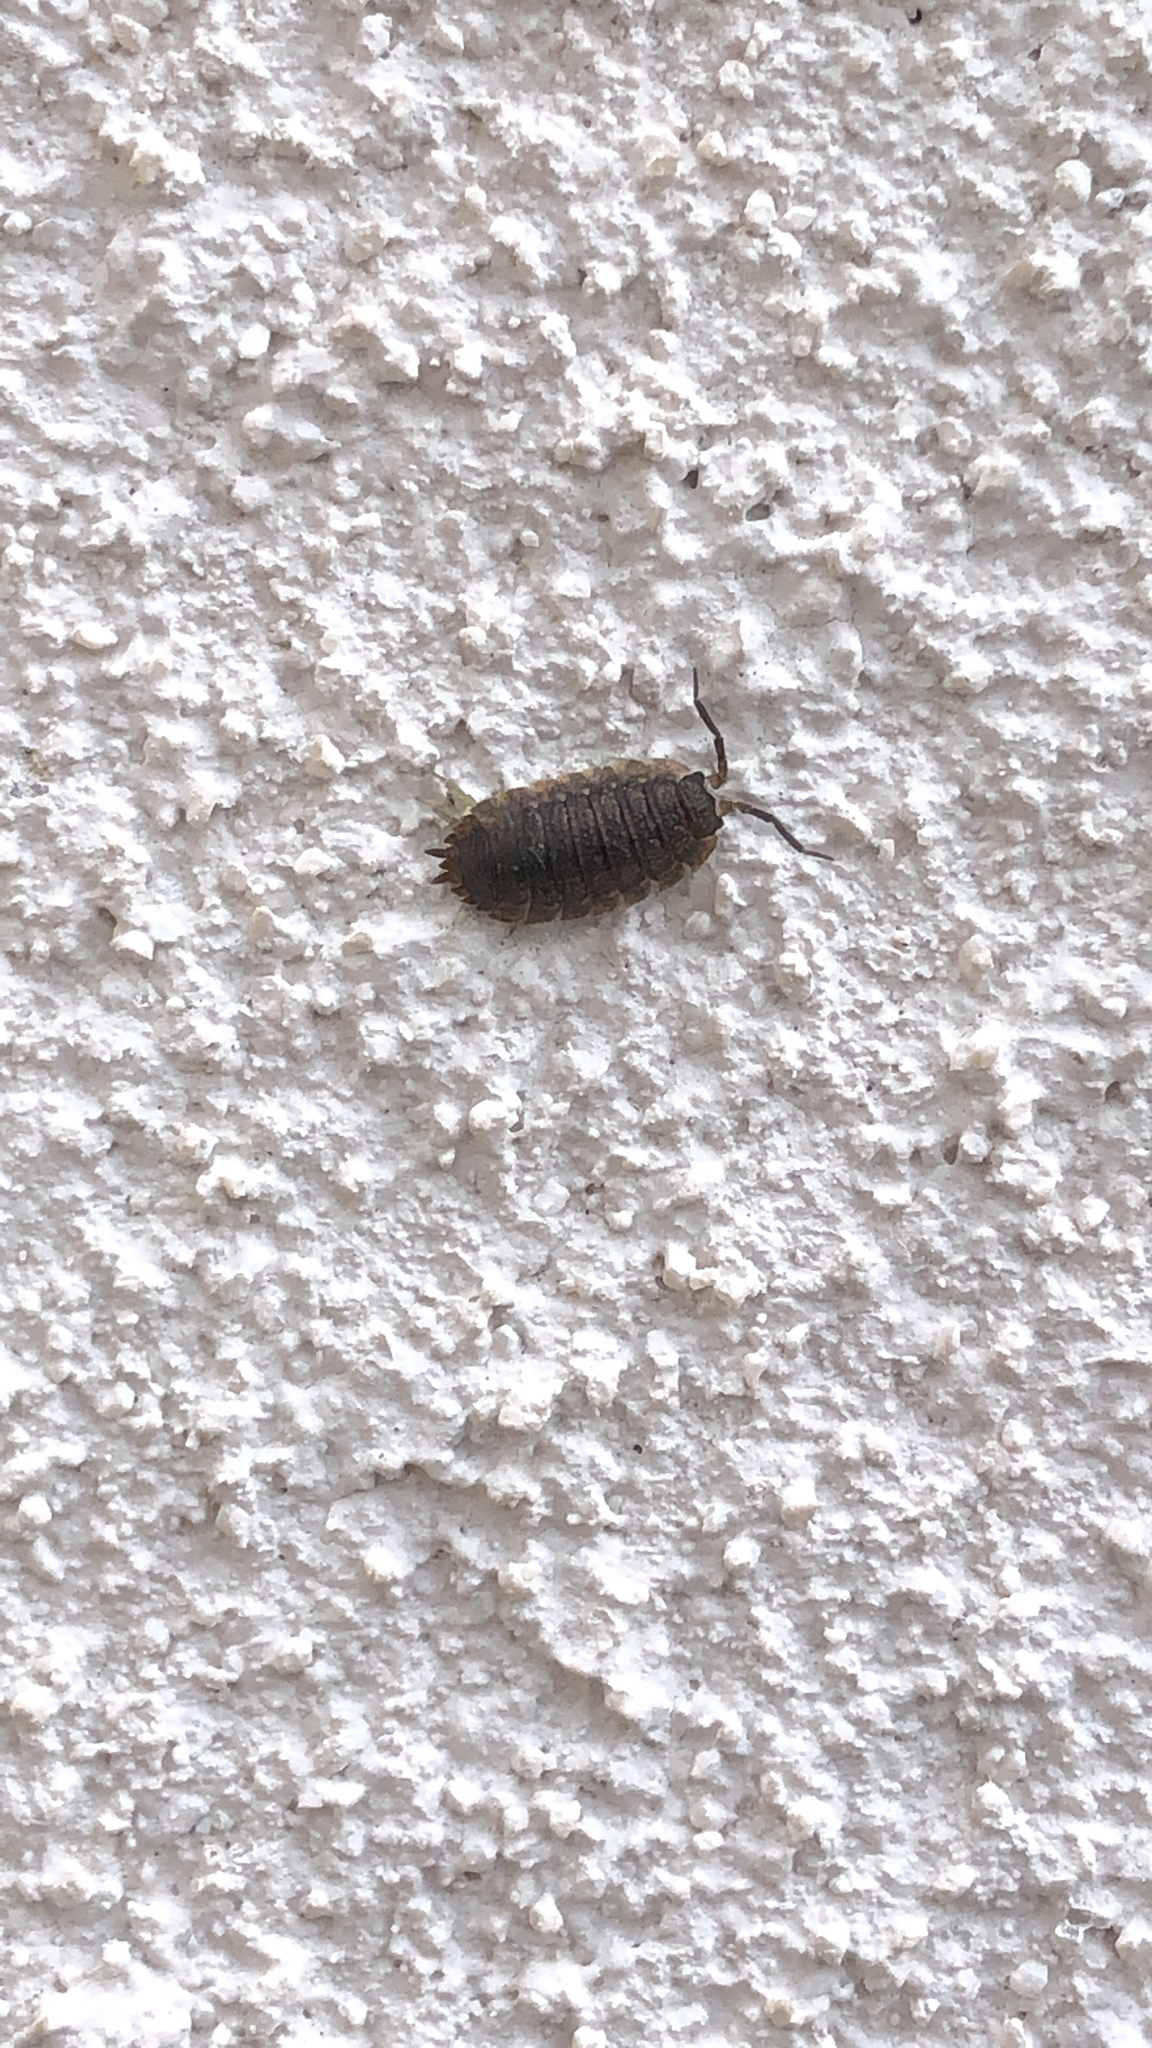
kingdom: Animalia
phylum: Arthropoda
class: Malacostraca
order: Isopoda
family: Porcellionidae
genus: Porcellio
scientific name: Porcellio scaber
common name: Common rough woodlouse
